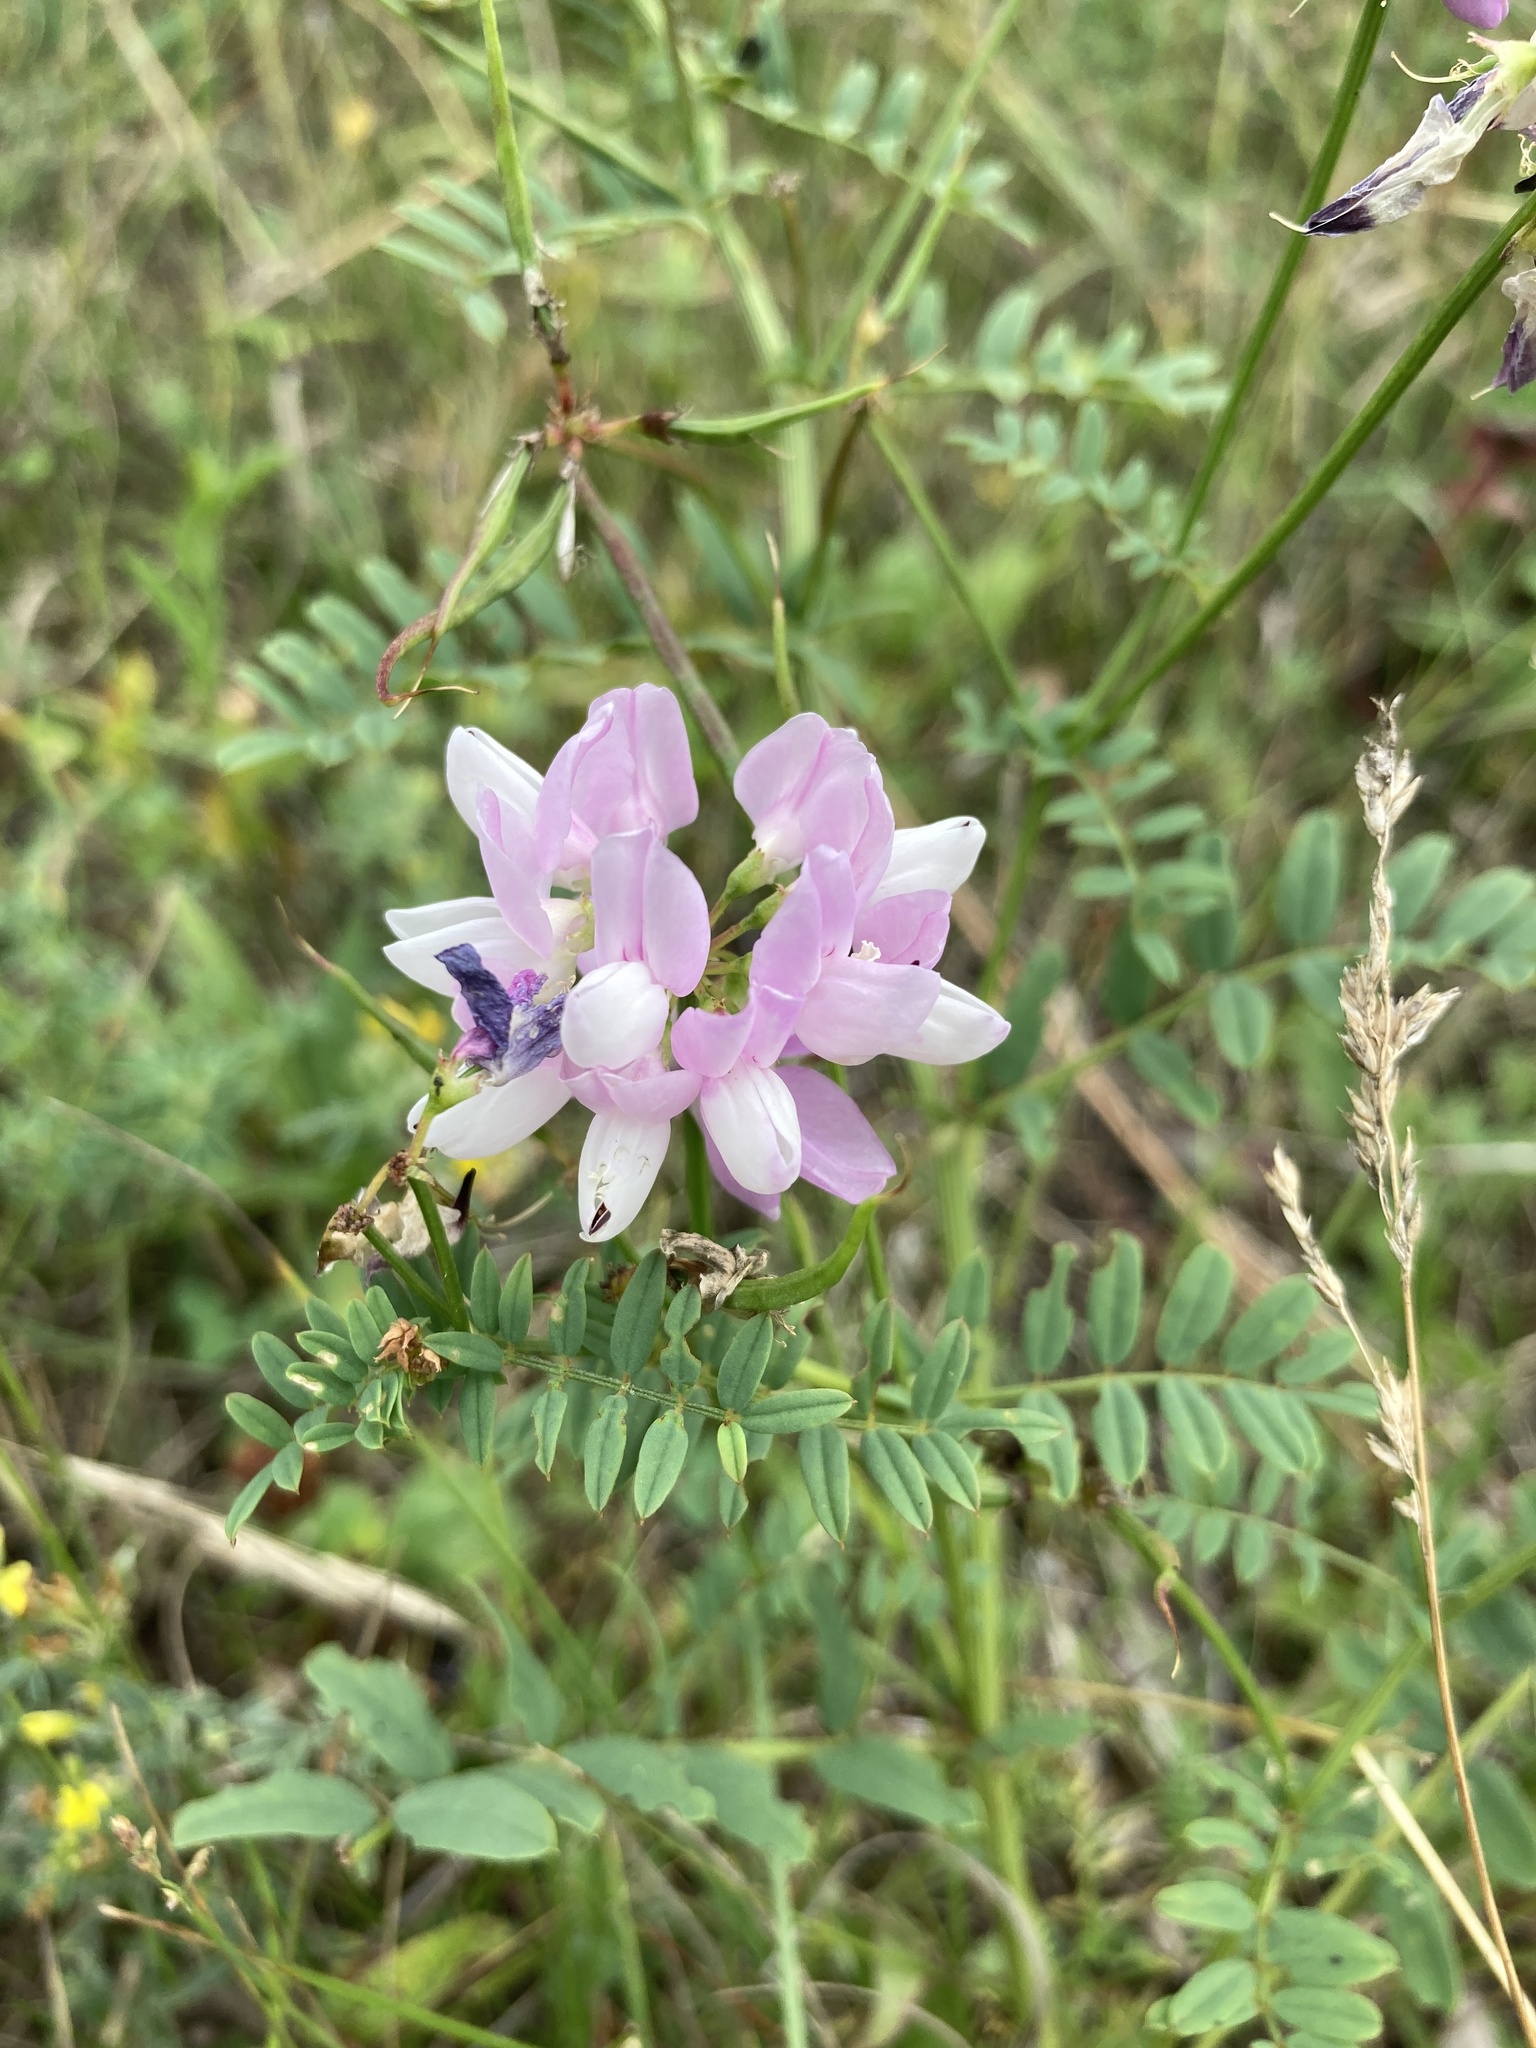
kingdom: Plantae
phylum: Tracheophyta
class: Magnoliopsida
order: Fabales
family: Fabaceae
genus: Coronilla
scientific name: Coronilla varia
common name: Crownvetch
